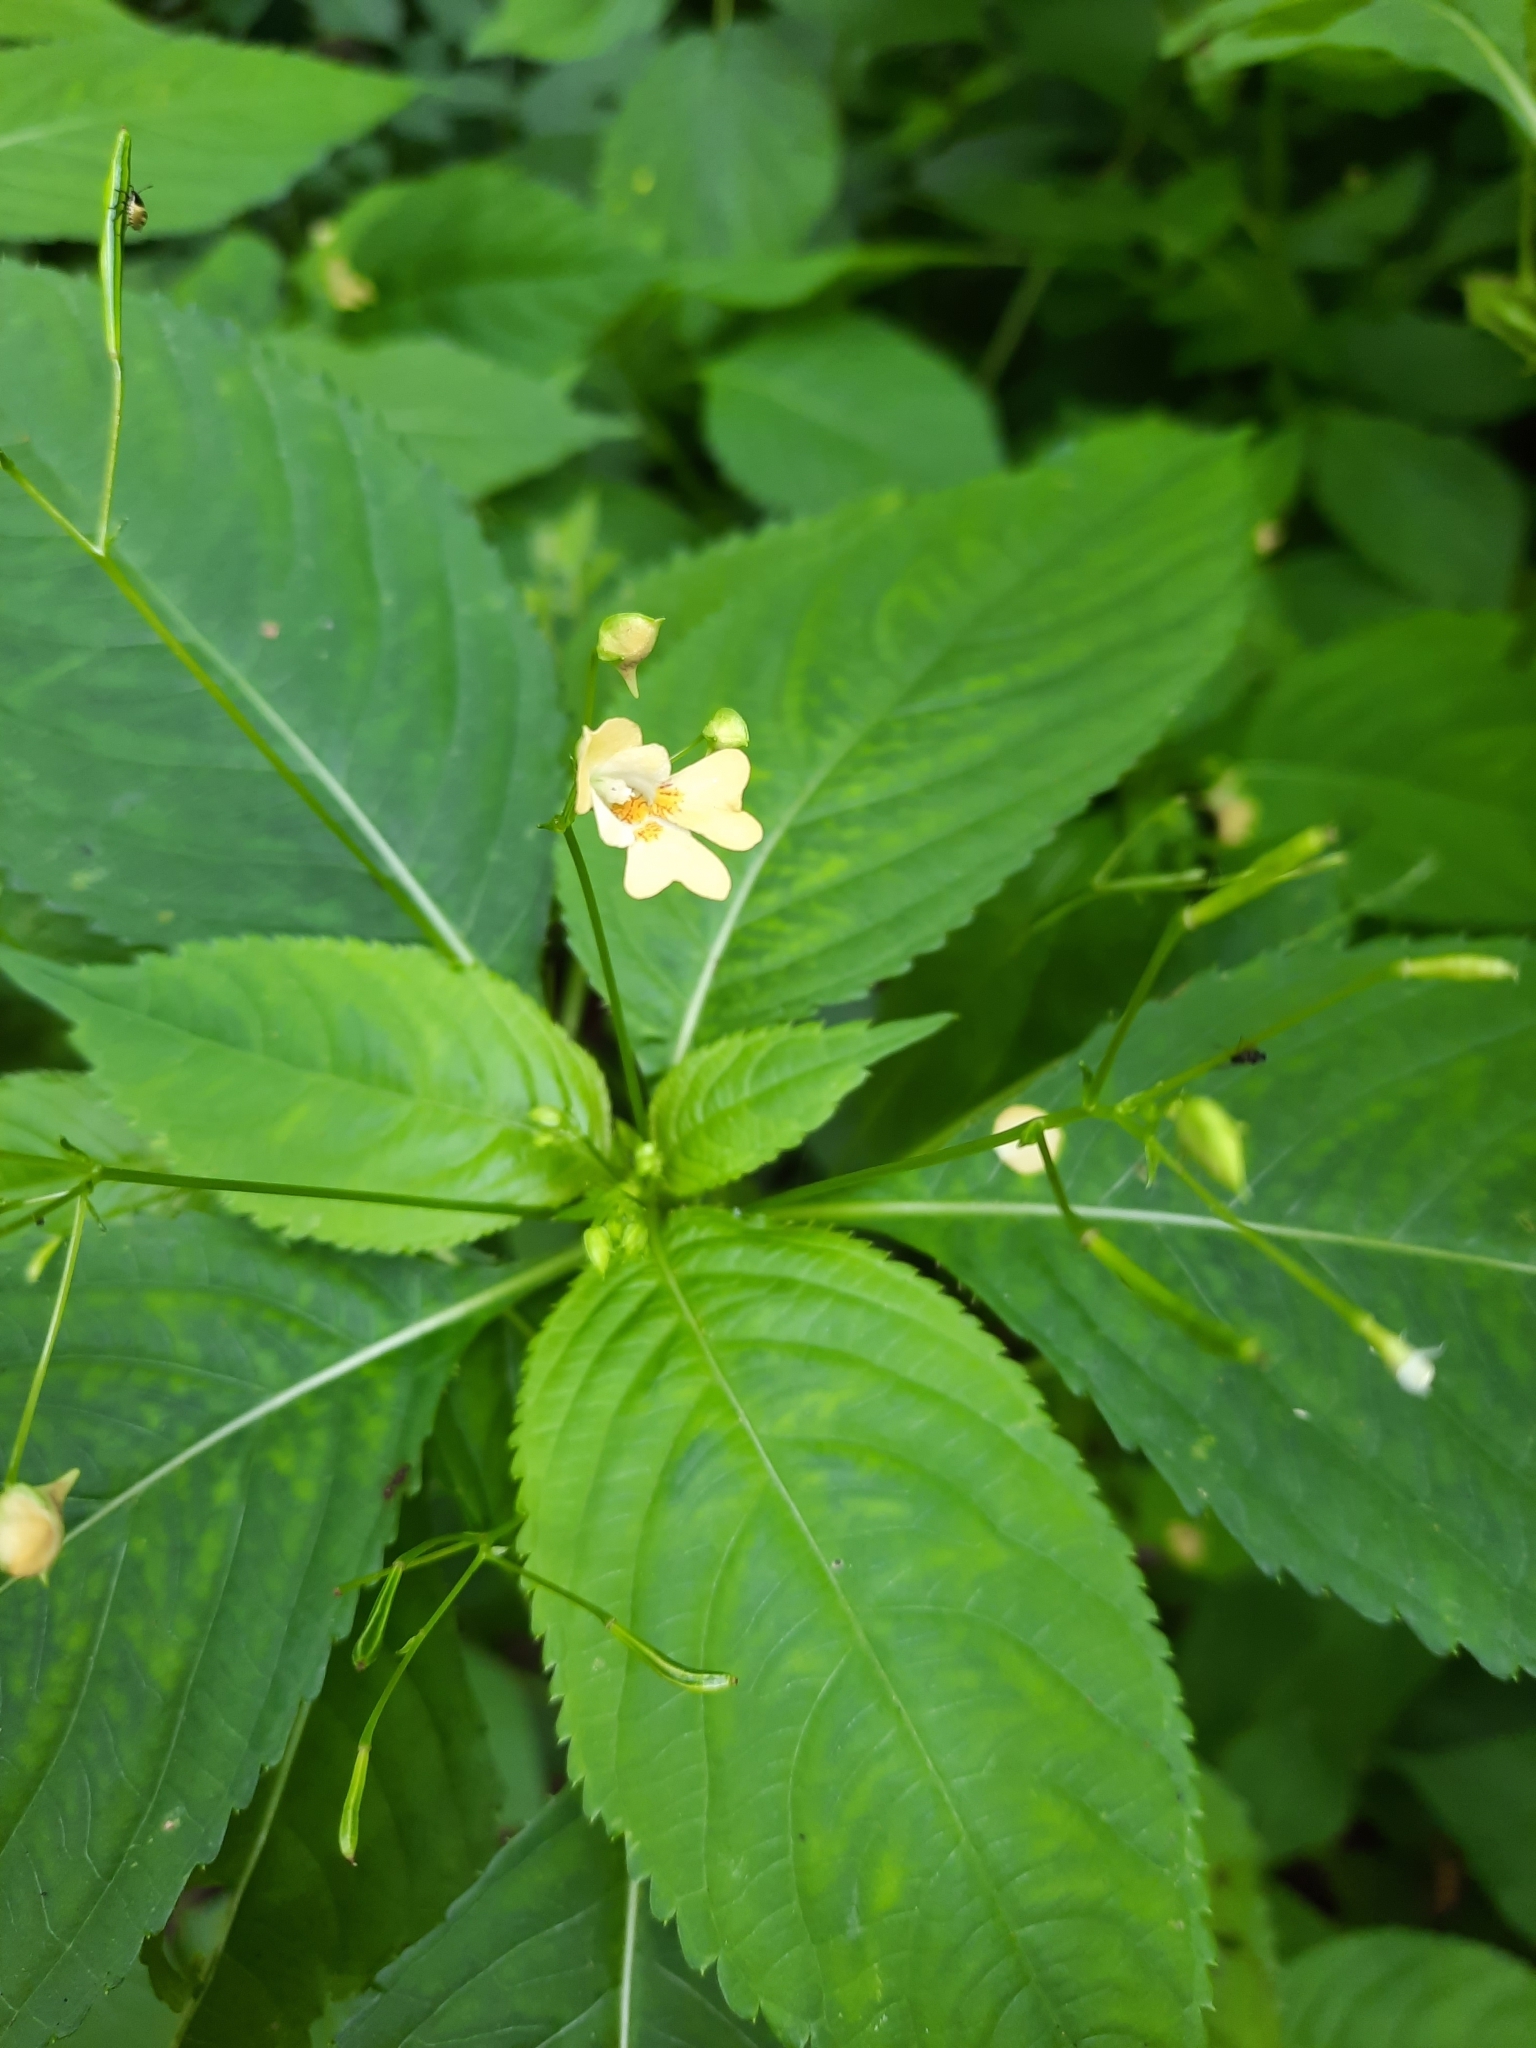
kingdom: Plantae
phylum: Tracheophyta
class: Magnoliopsida
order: Ericales
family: Balsaminaceae
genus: Impatiens
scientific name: Impatiens parviflora
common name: Small balsam
